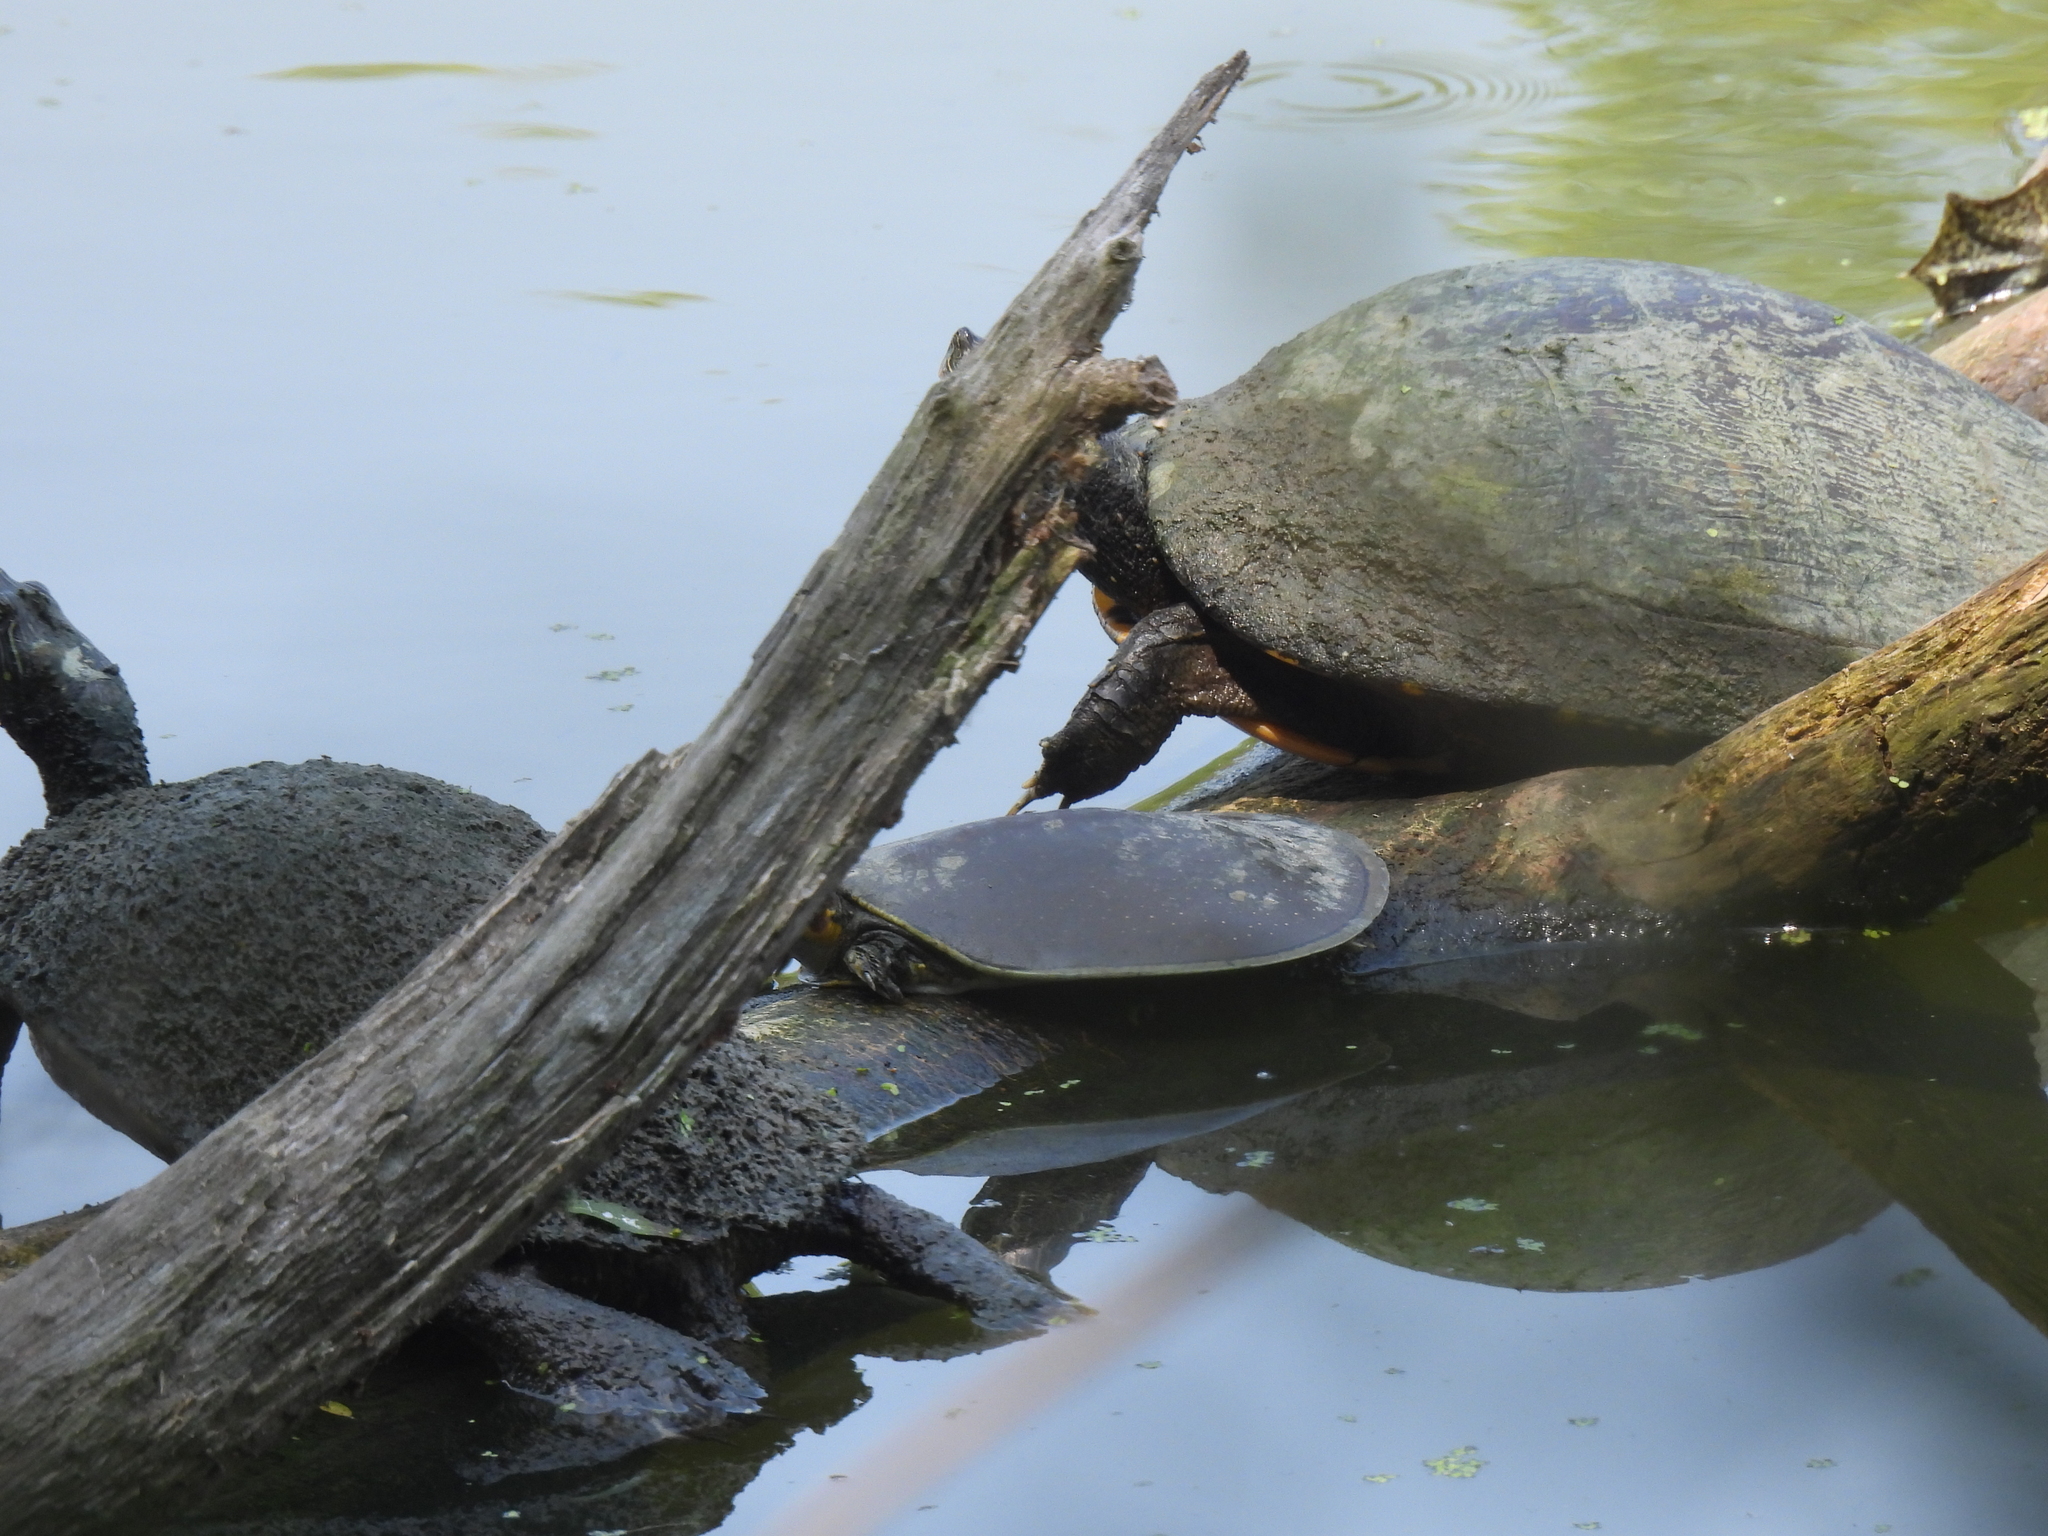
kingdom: Animalia
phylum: Chordata
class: Testudines
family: Trionychidae
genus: Apalone
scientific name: Apalone spinifera
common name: Spiny softshell turtle
